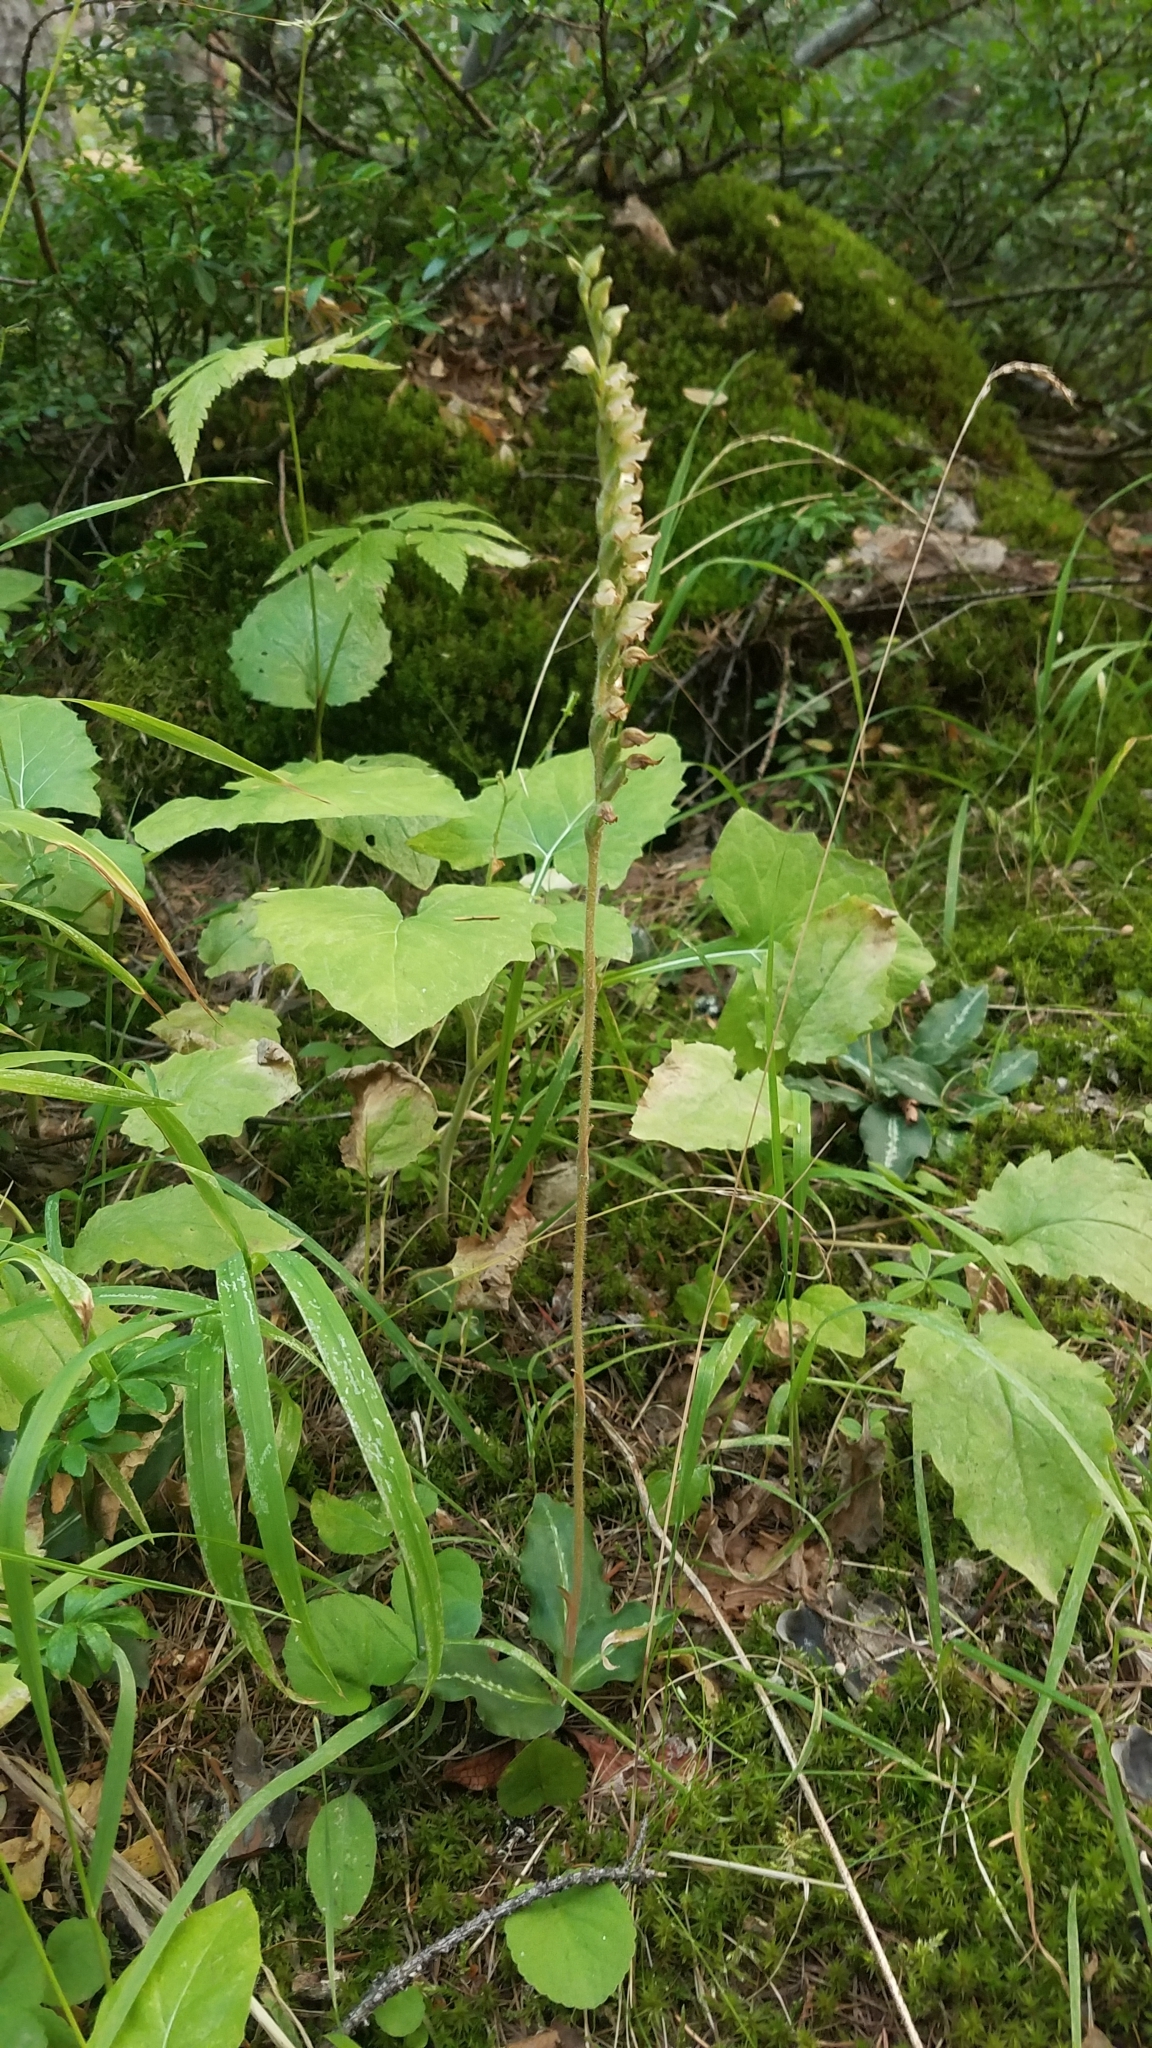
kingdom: Plantae
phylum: Tracheophyta
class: Liliopsida
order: Asparagales
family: Orchidaceae
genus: Goodyera
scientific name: Goodyera oblongifolia
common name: Giant rattlesnake-plantain
